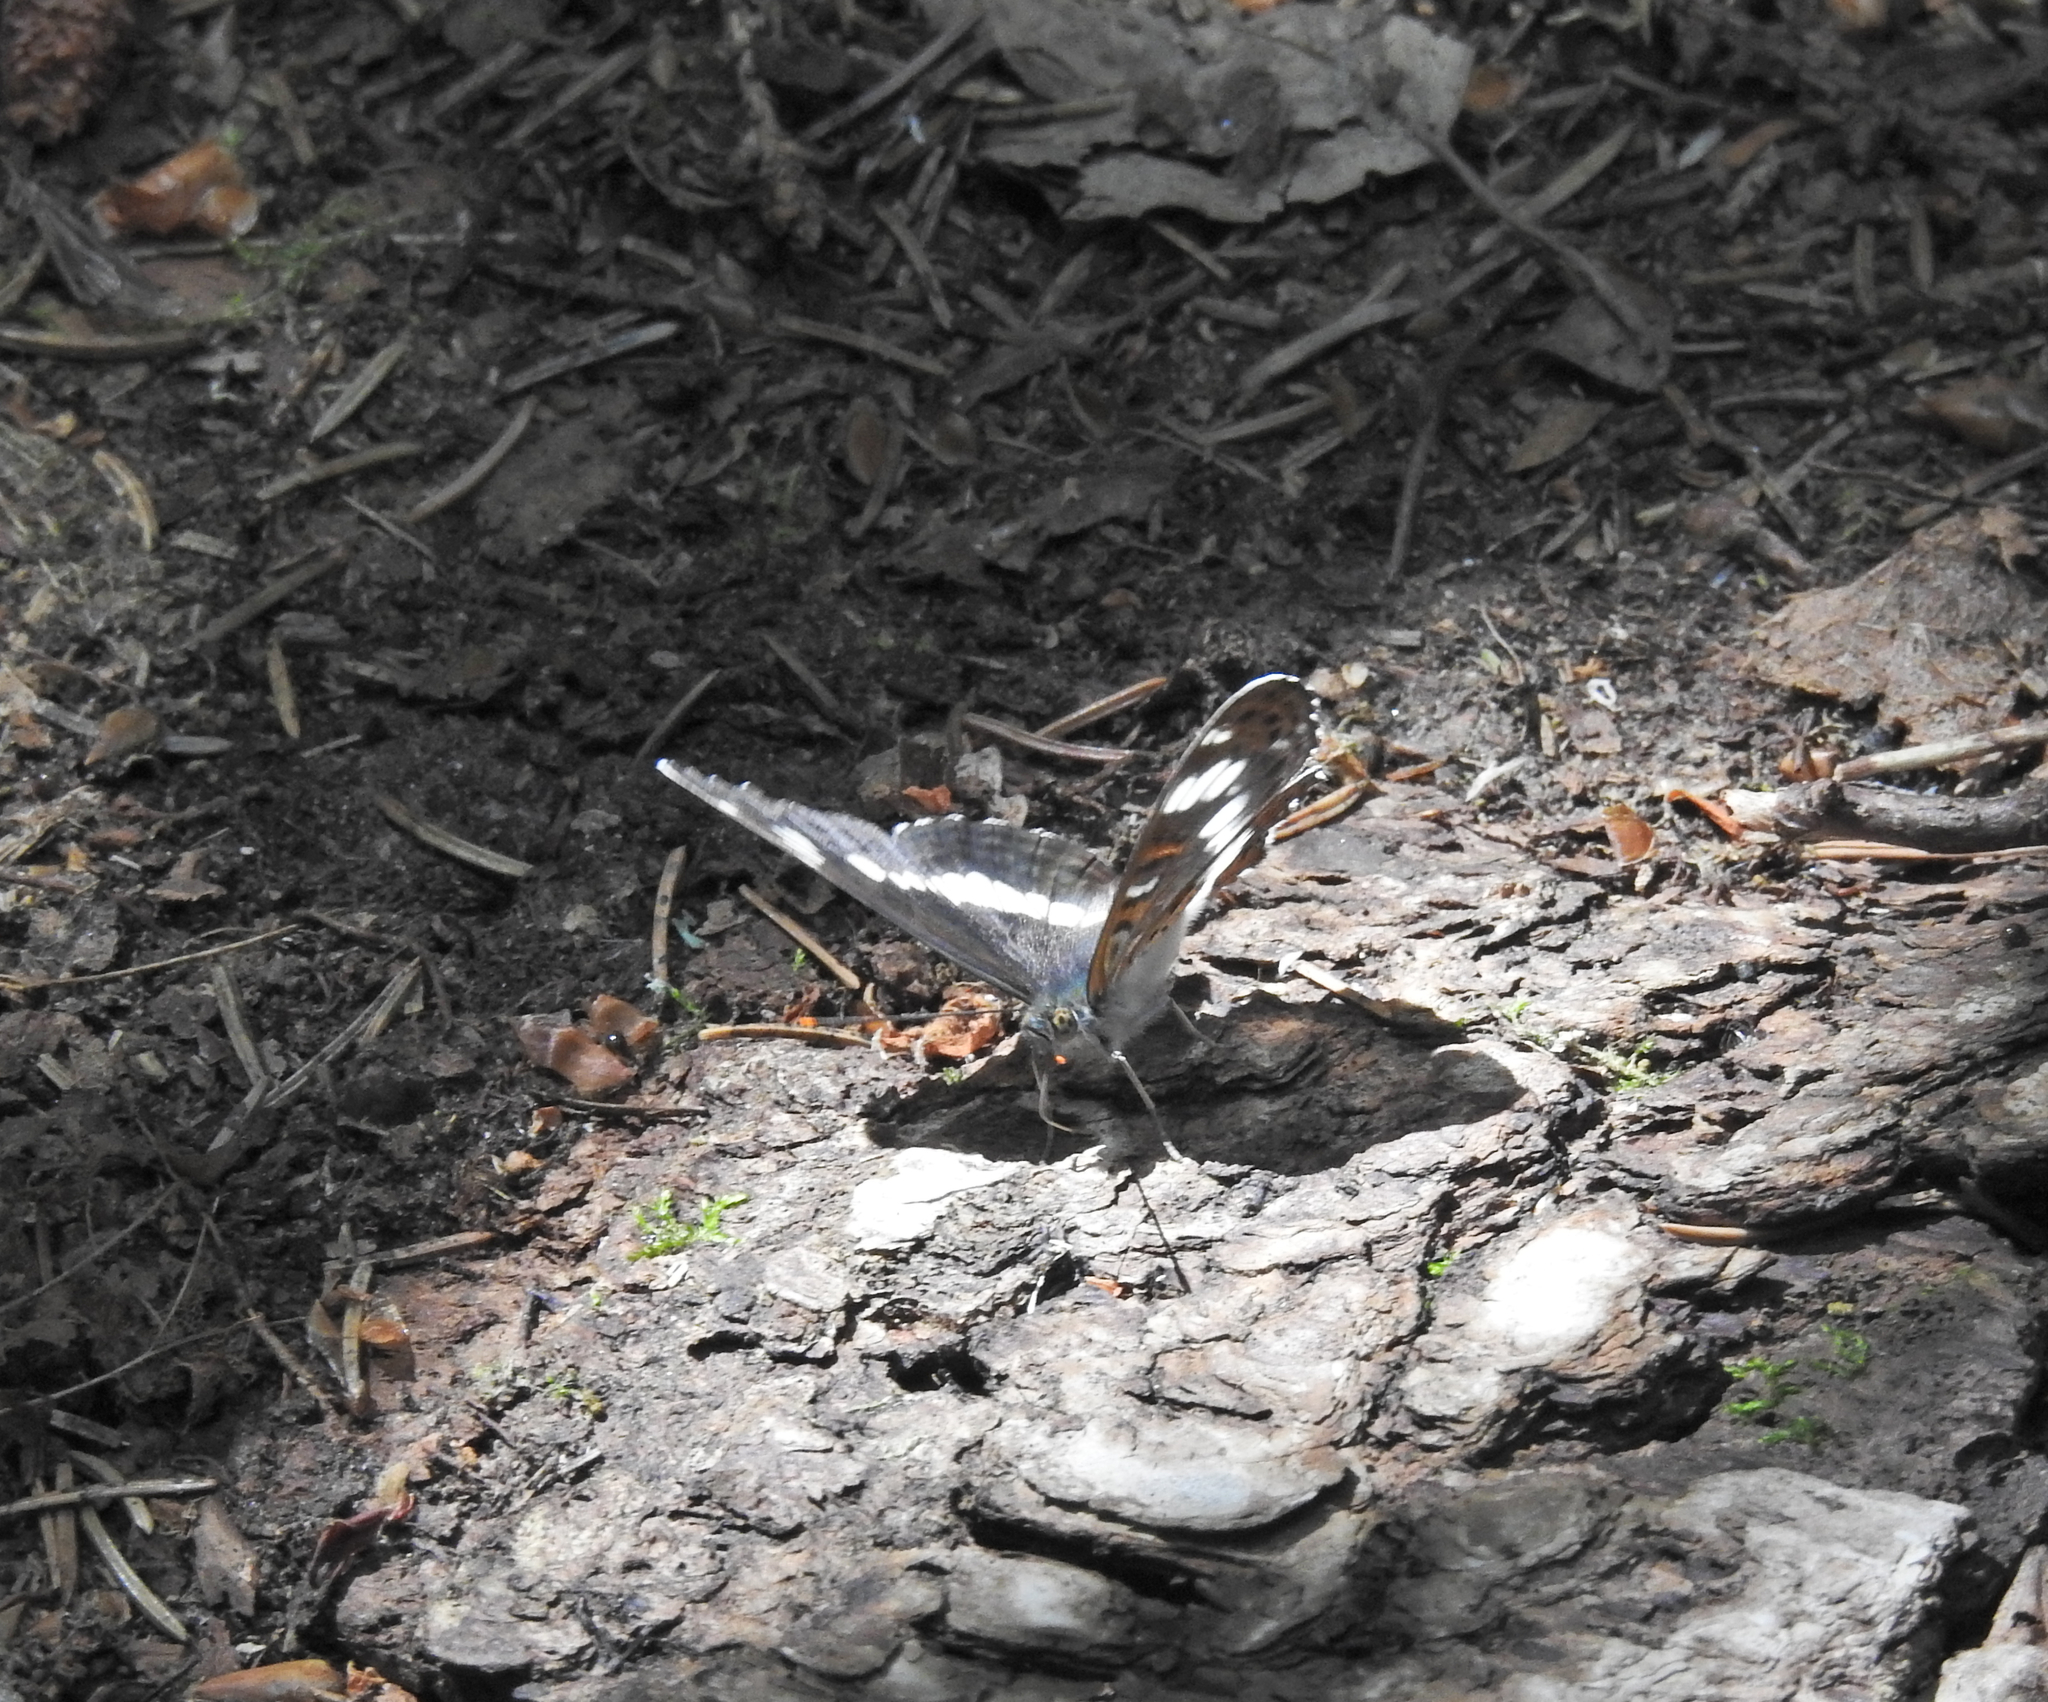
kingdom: Animalia
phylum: Arthropoda
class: Insecta
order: Lepidoptera
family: Nymphalidae
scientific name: Nymphalidae
